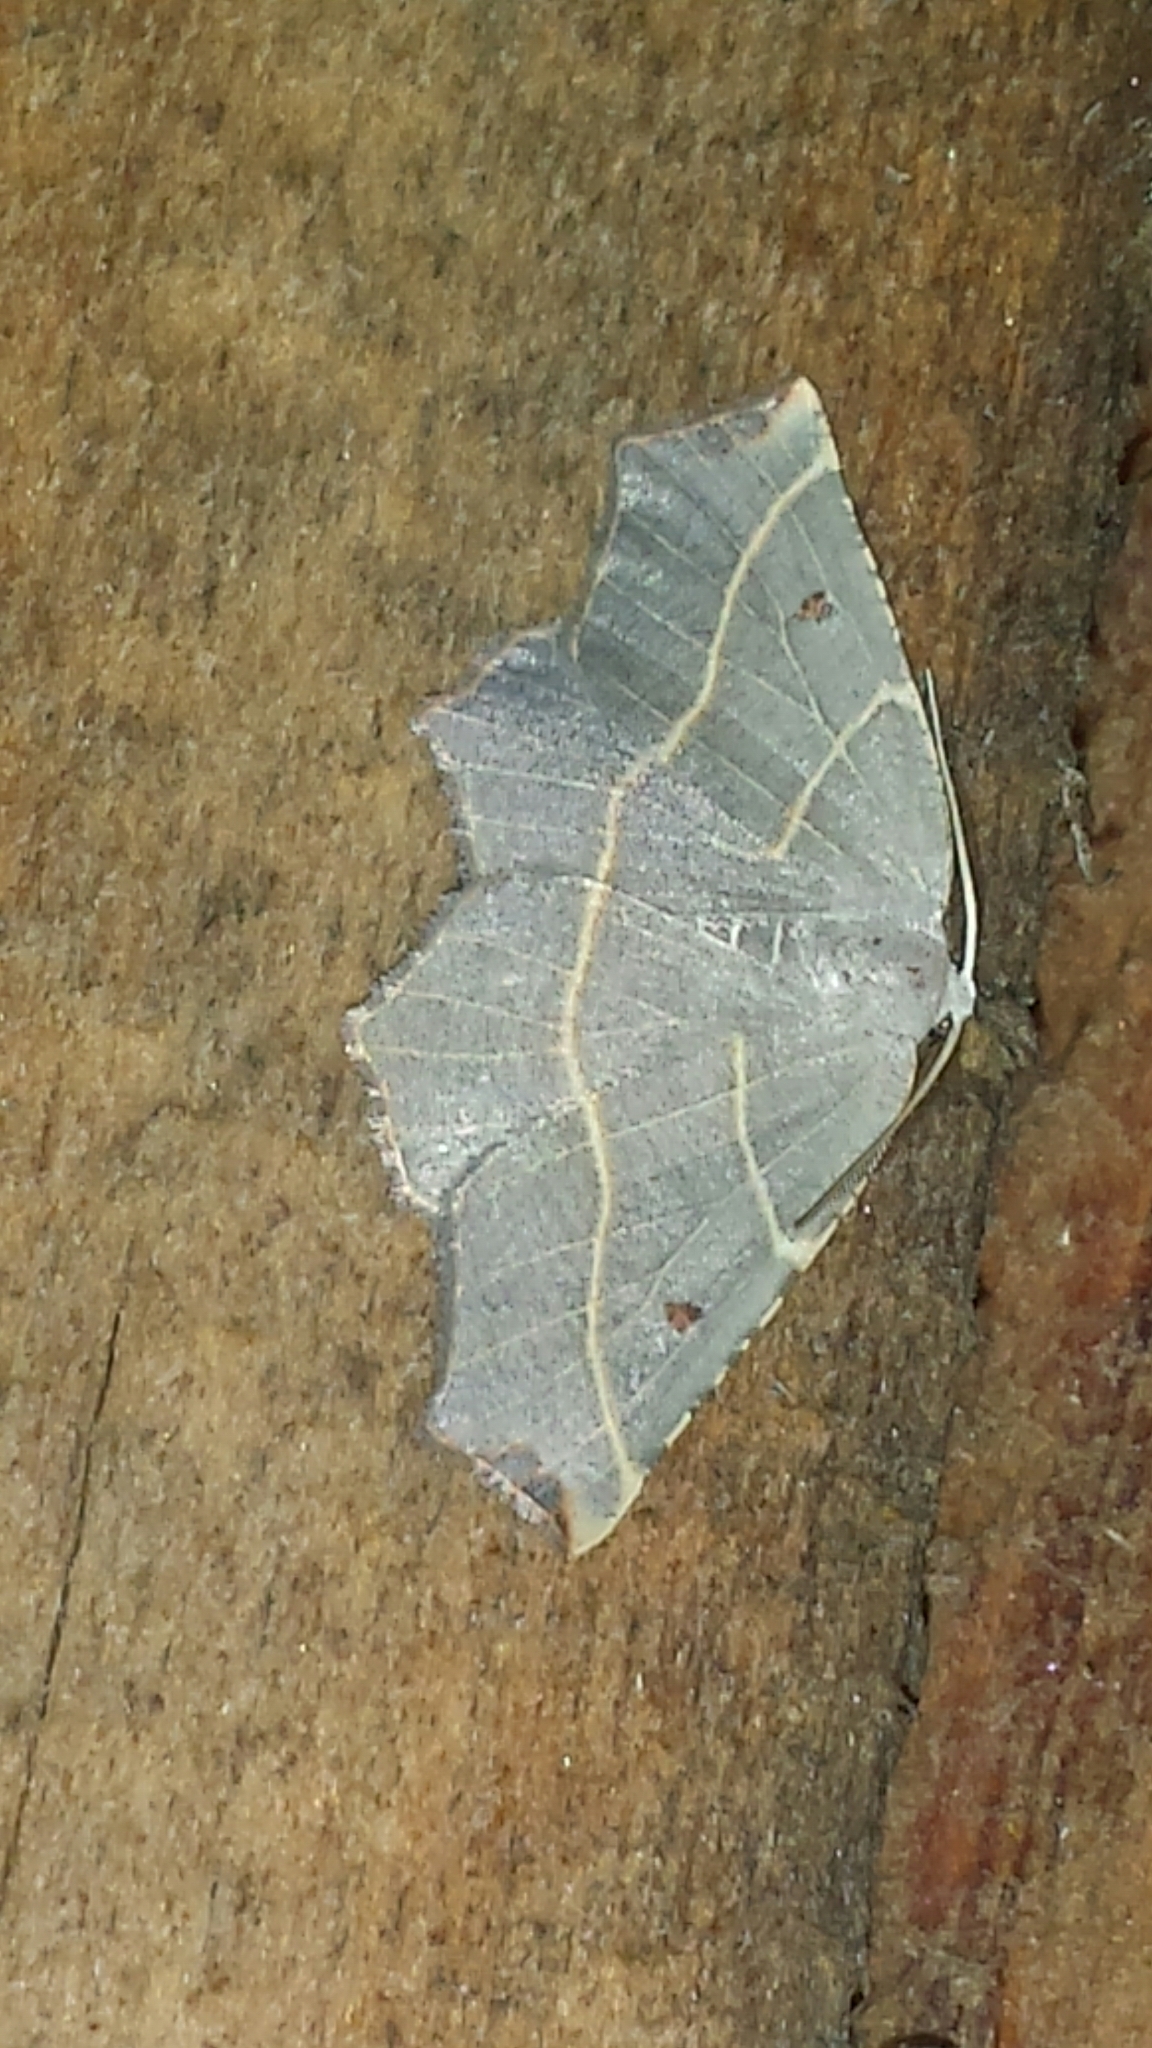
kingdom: Animalia
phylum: Arthropoda
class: Insecta
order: Lepidoptera
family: Geometridae
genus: Metanema
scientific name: Metanema inatomaria
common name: Pale metanema
